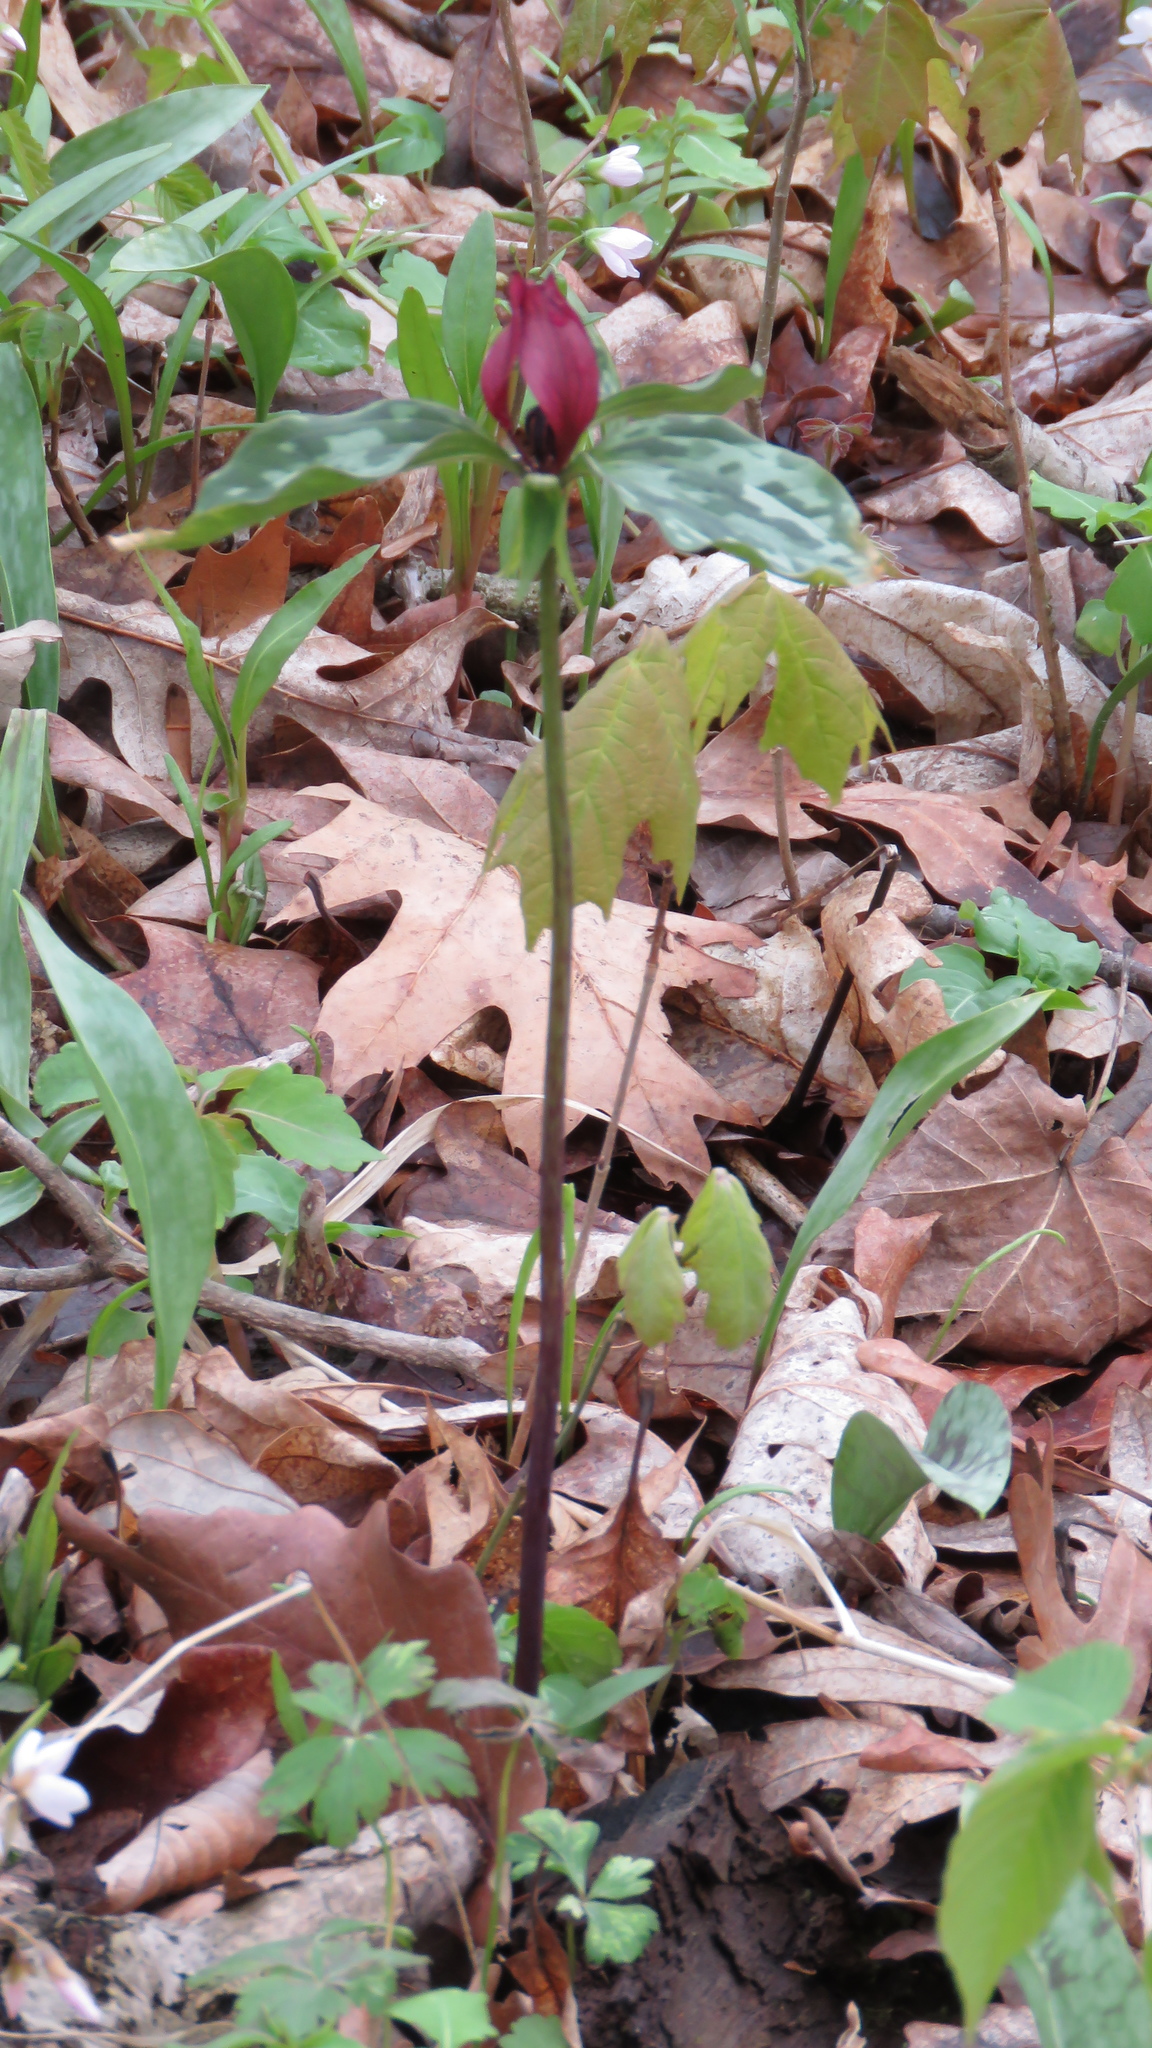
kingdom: Plantae
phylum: Tracheophyta
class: Liliopsida
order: Liliales
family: Melanthiaceae
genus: Trillium
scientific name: Trillium recurvatum
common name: Bloody butcher
